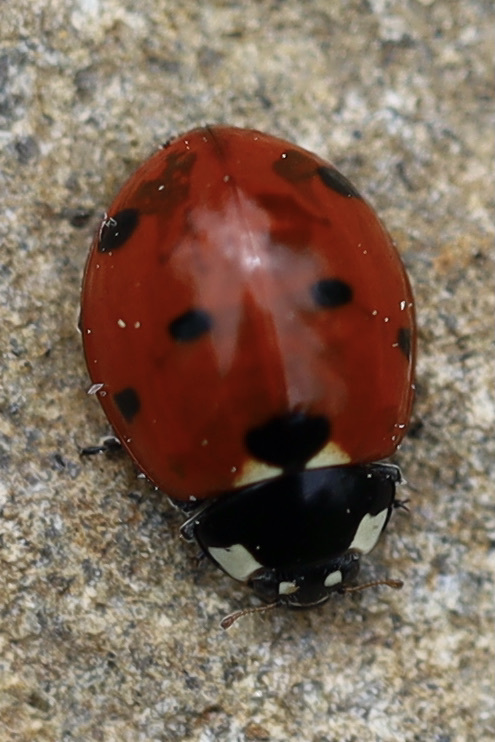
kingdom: Animalia
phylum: Arthropoda
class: Insecta
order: Coleoptera
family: Coccinellidae
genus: Coccinella
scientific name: Coccinella septempunctata
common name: Sevenspotted lady beetle
